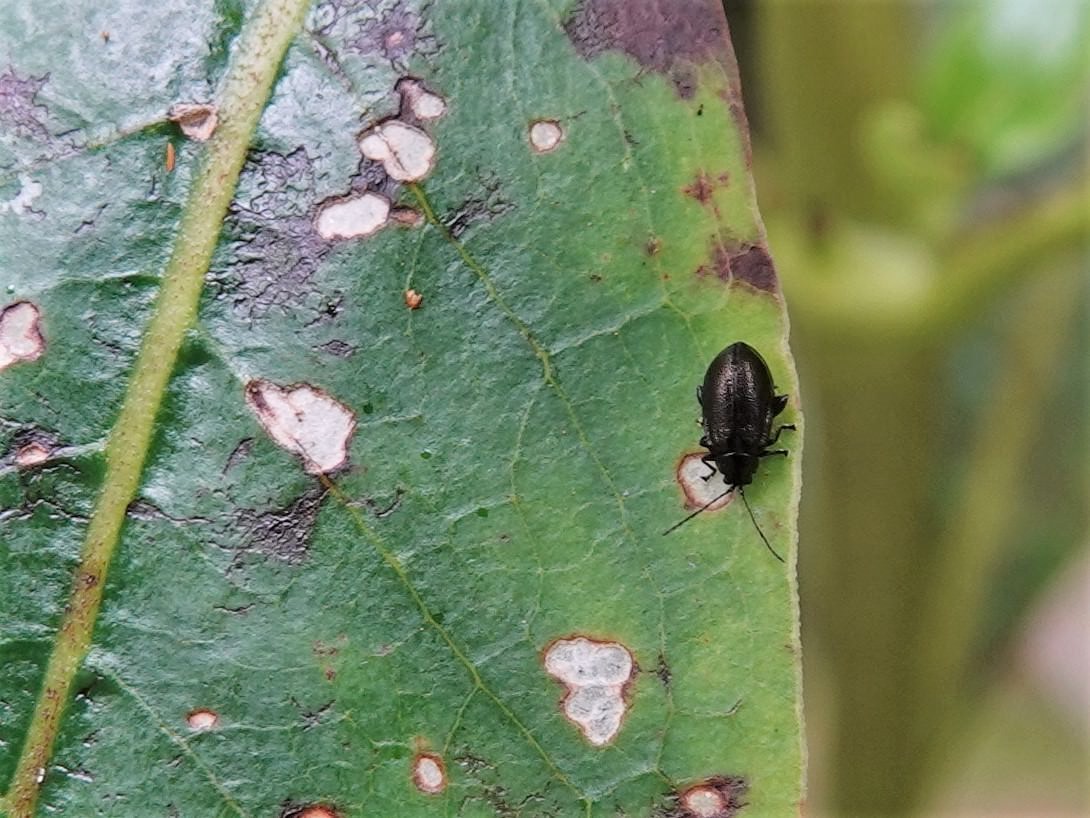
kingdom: Animalia
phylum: Arthropoda
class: Insecta
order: Coleoptera
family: Chrysomelidae
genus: Pleuraltica
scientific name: Pleuraltica cyanea
